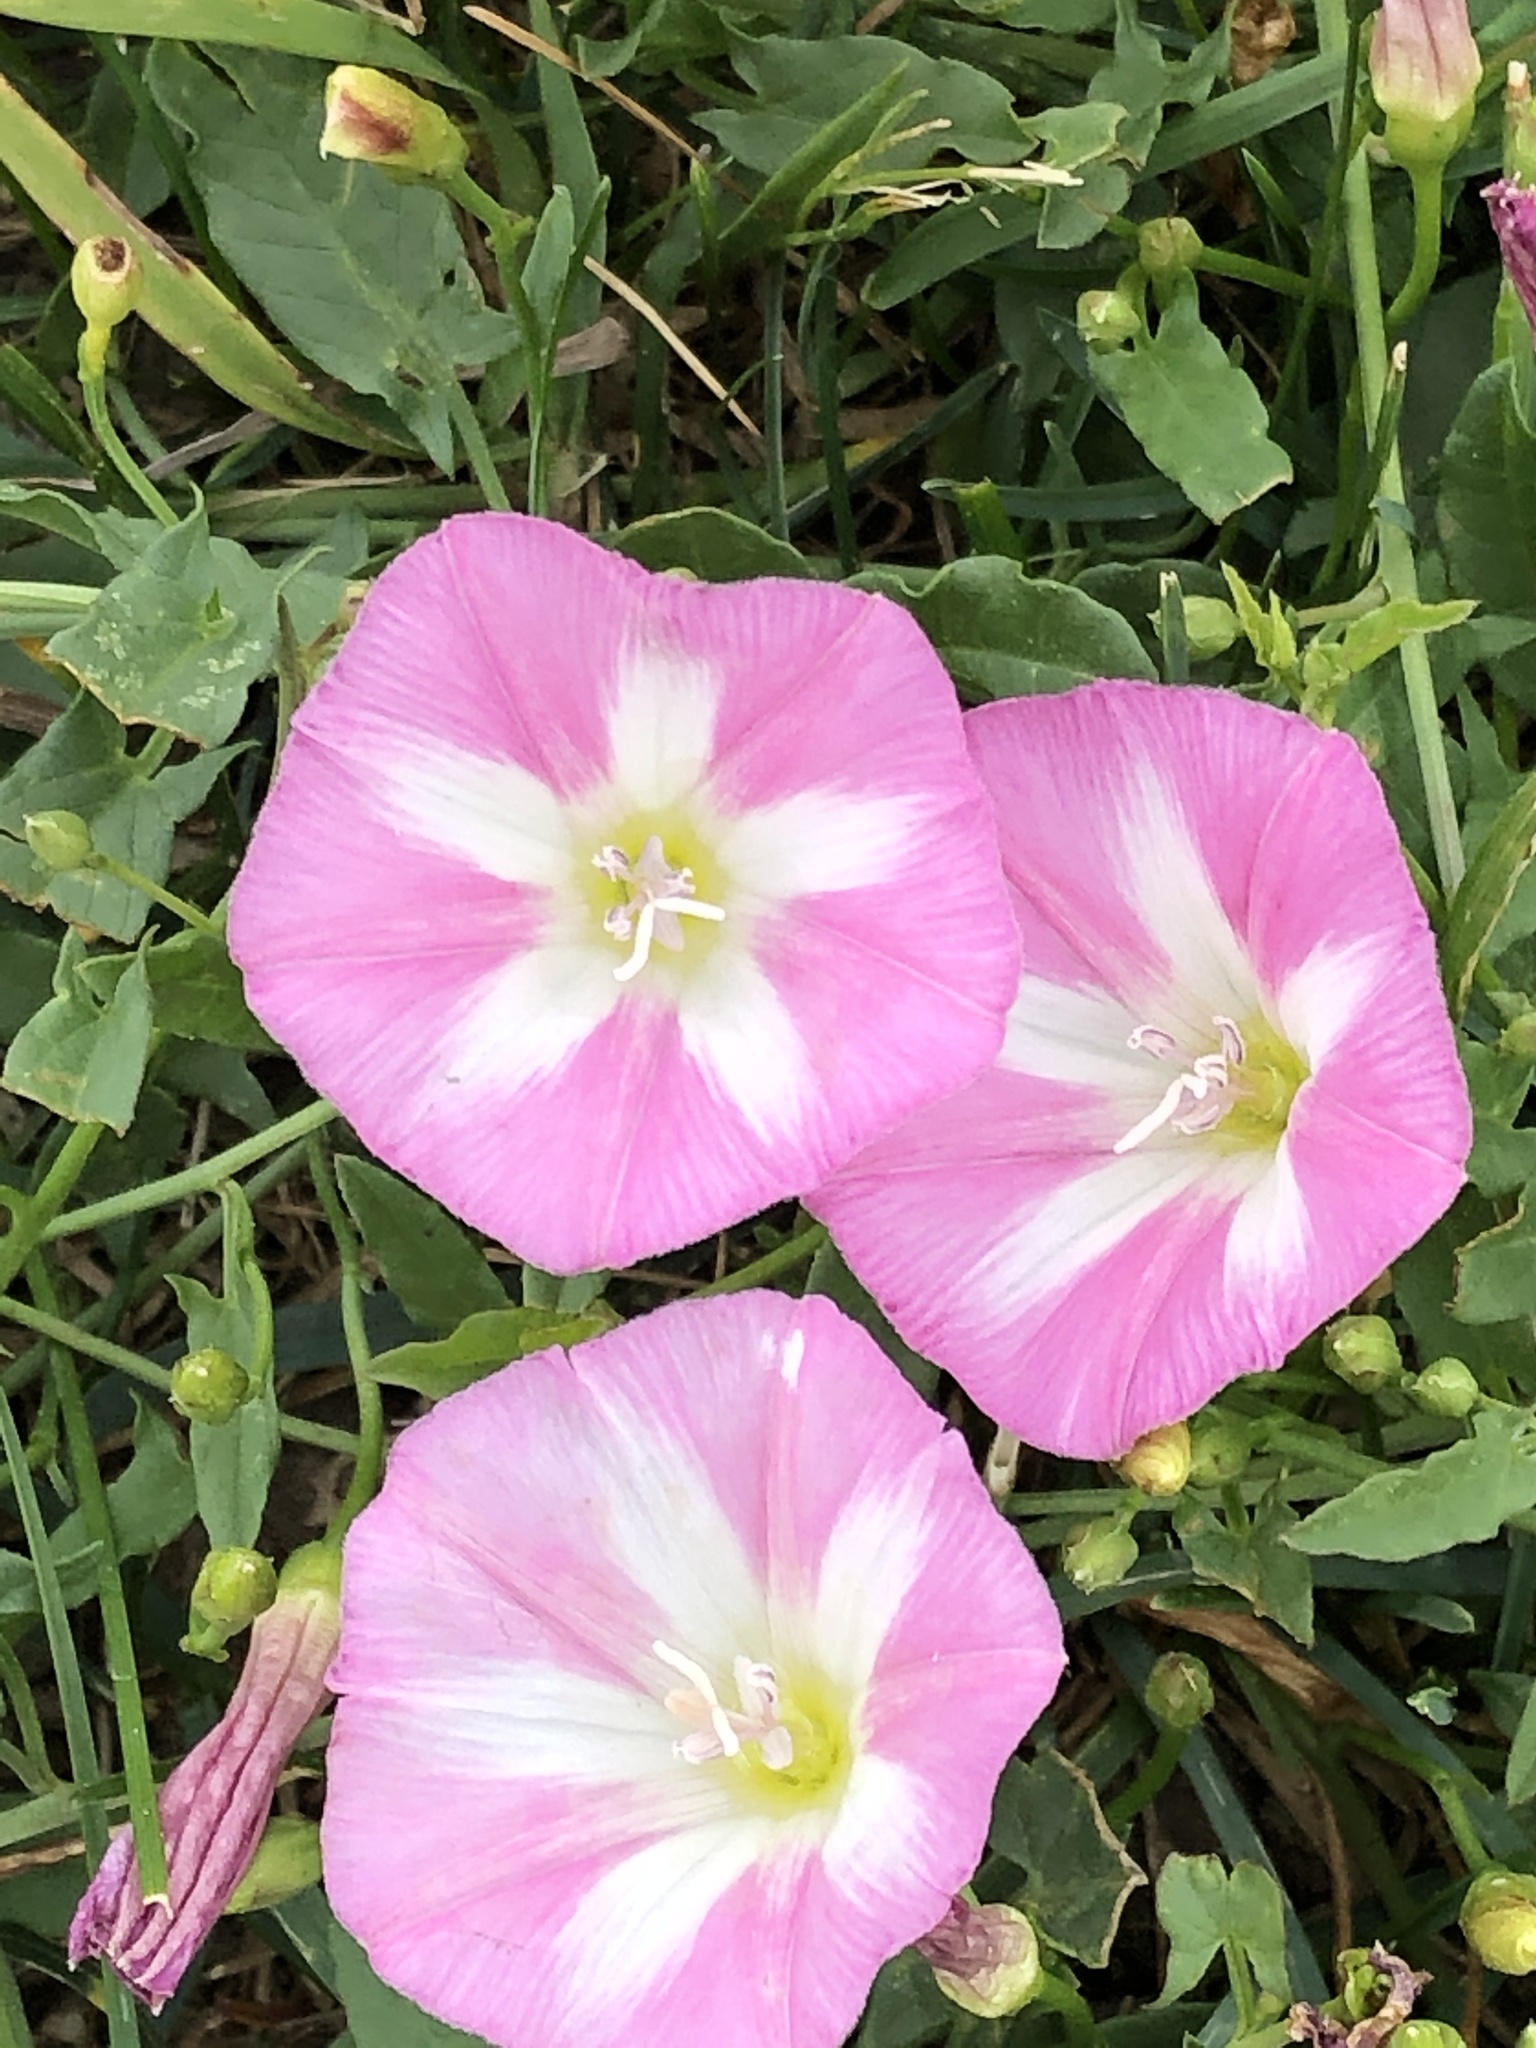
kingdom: Plantae
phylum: Tracheophyta
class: Magnoliopsida
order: Solanales
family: Convolvulaceae
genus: Convolvulus
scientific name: Convolvulus arvensis
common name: Field bindweed
